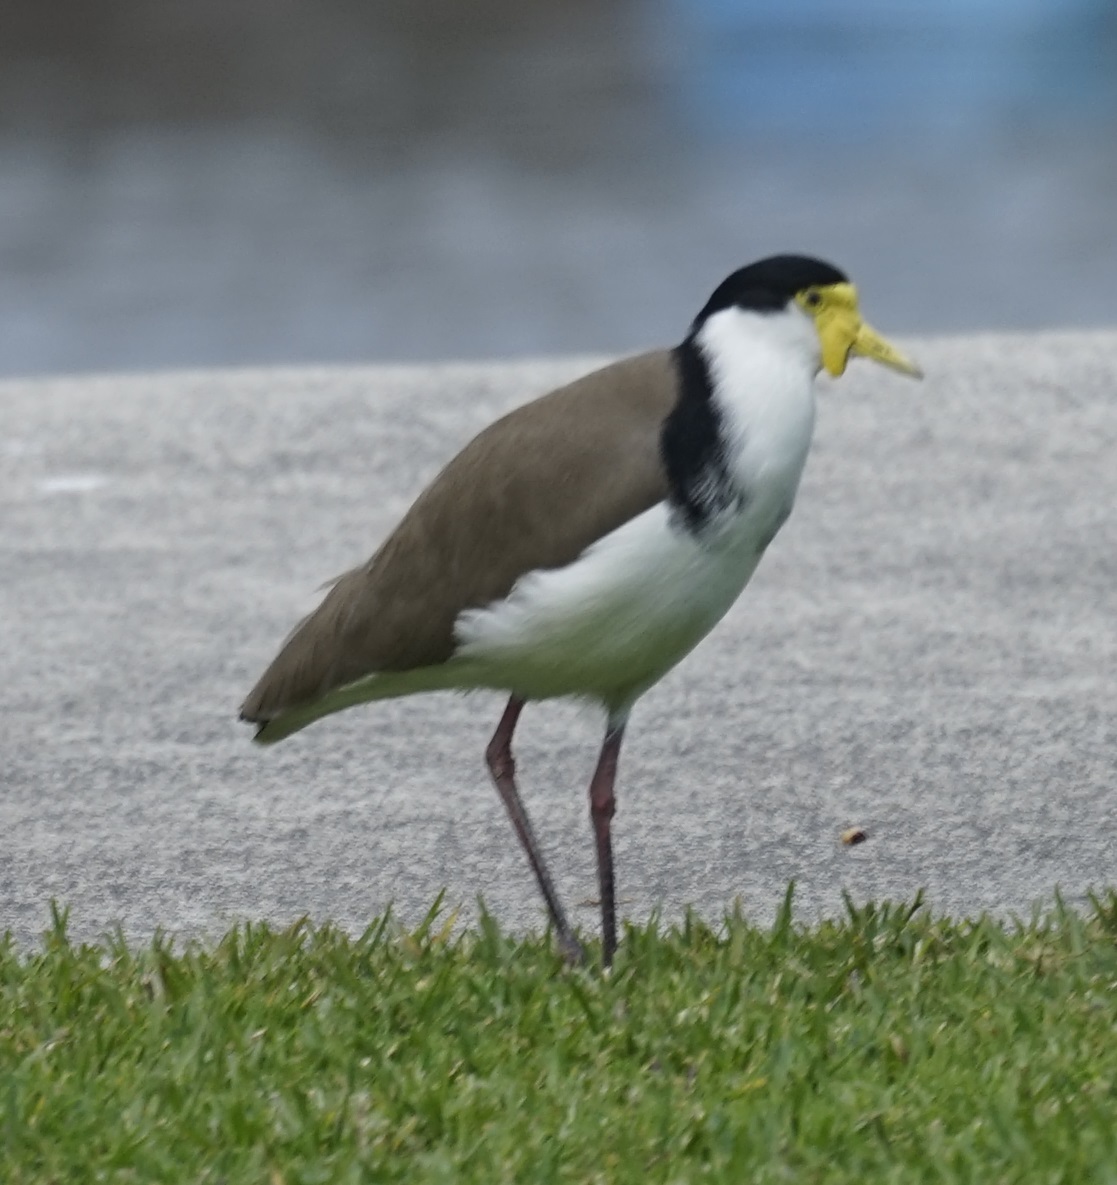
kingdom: Animalia
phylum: Chordata
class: Aves
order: Charadriiformes
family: Charadriidae
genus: Vanellus
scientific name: Vanellus miles
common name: Masked lapwing
